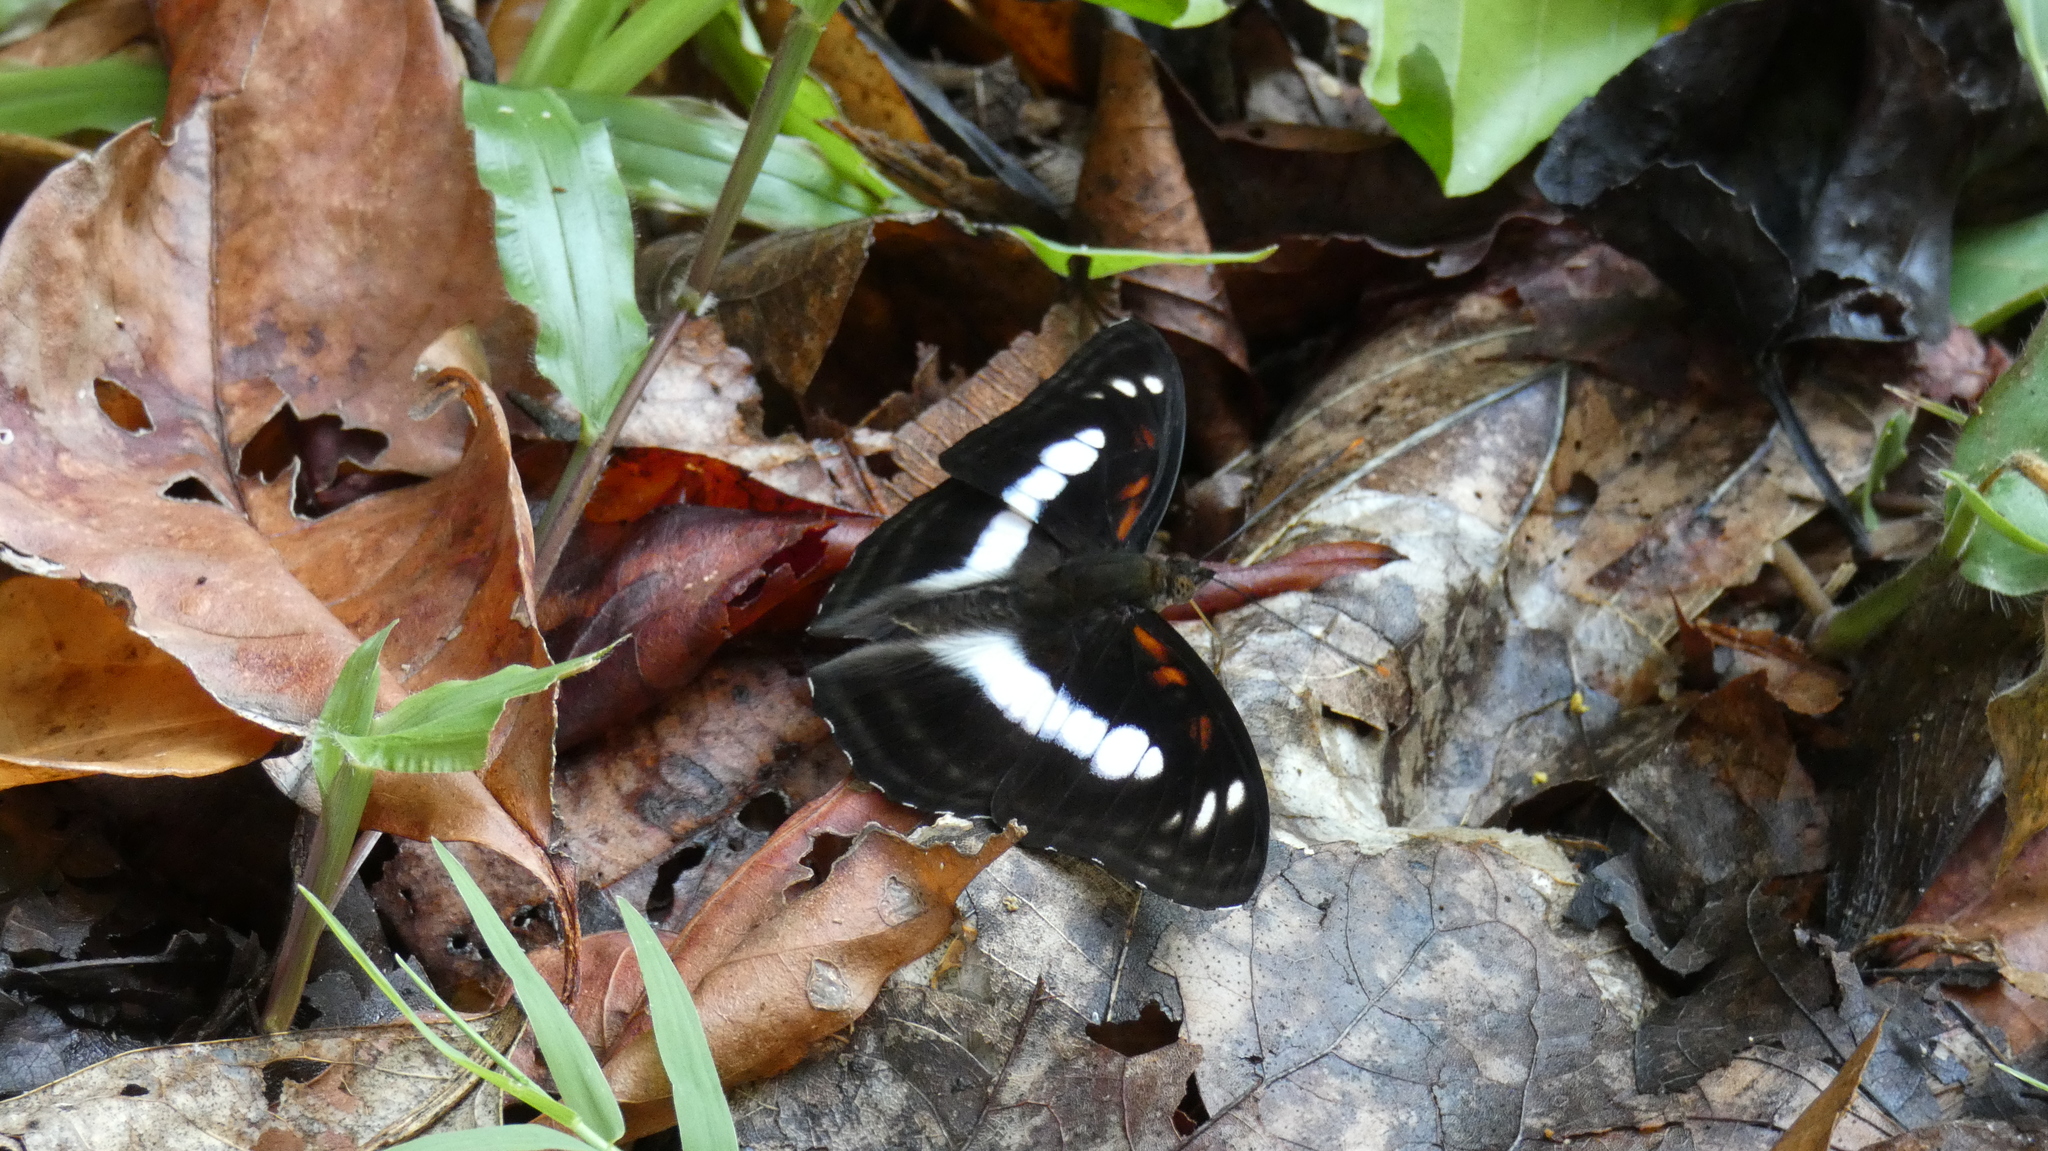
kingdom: Animalia
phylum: Arthropoda
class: Insecta
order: Lepidoptera
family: Nymphalidae
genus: Parathyma
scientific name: Parathyma selenophora
